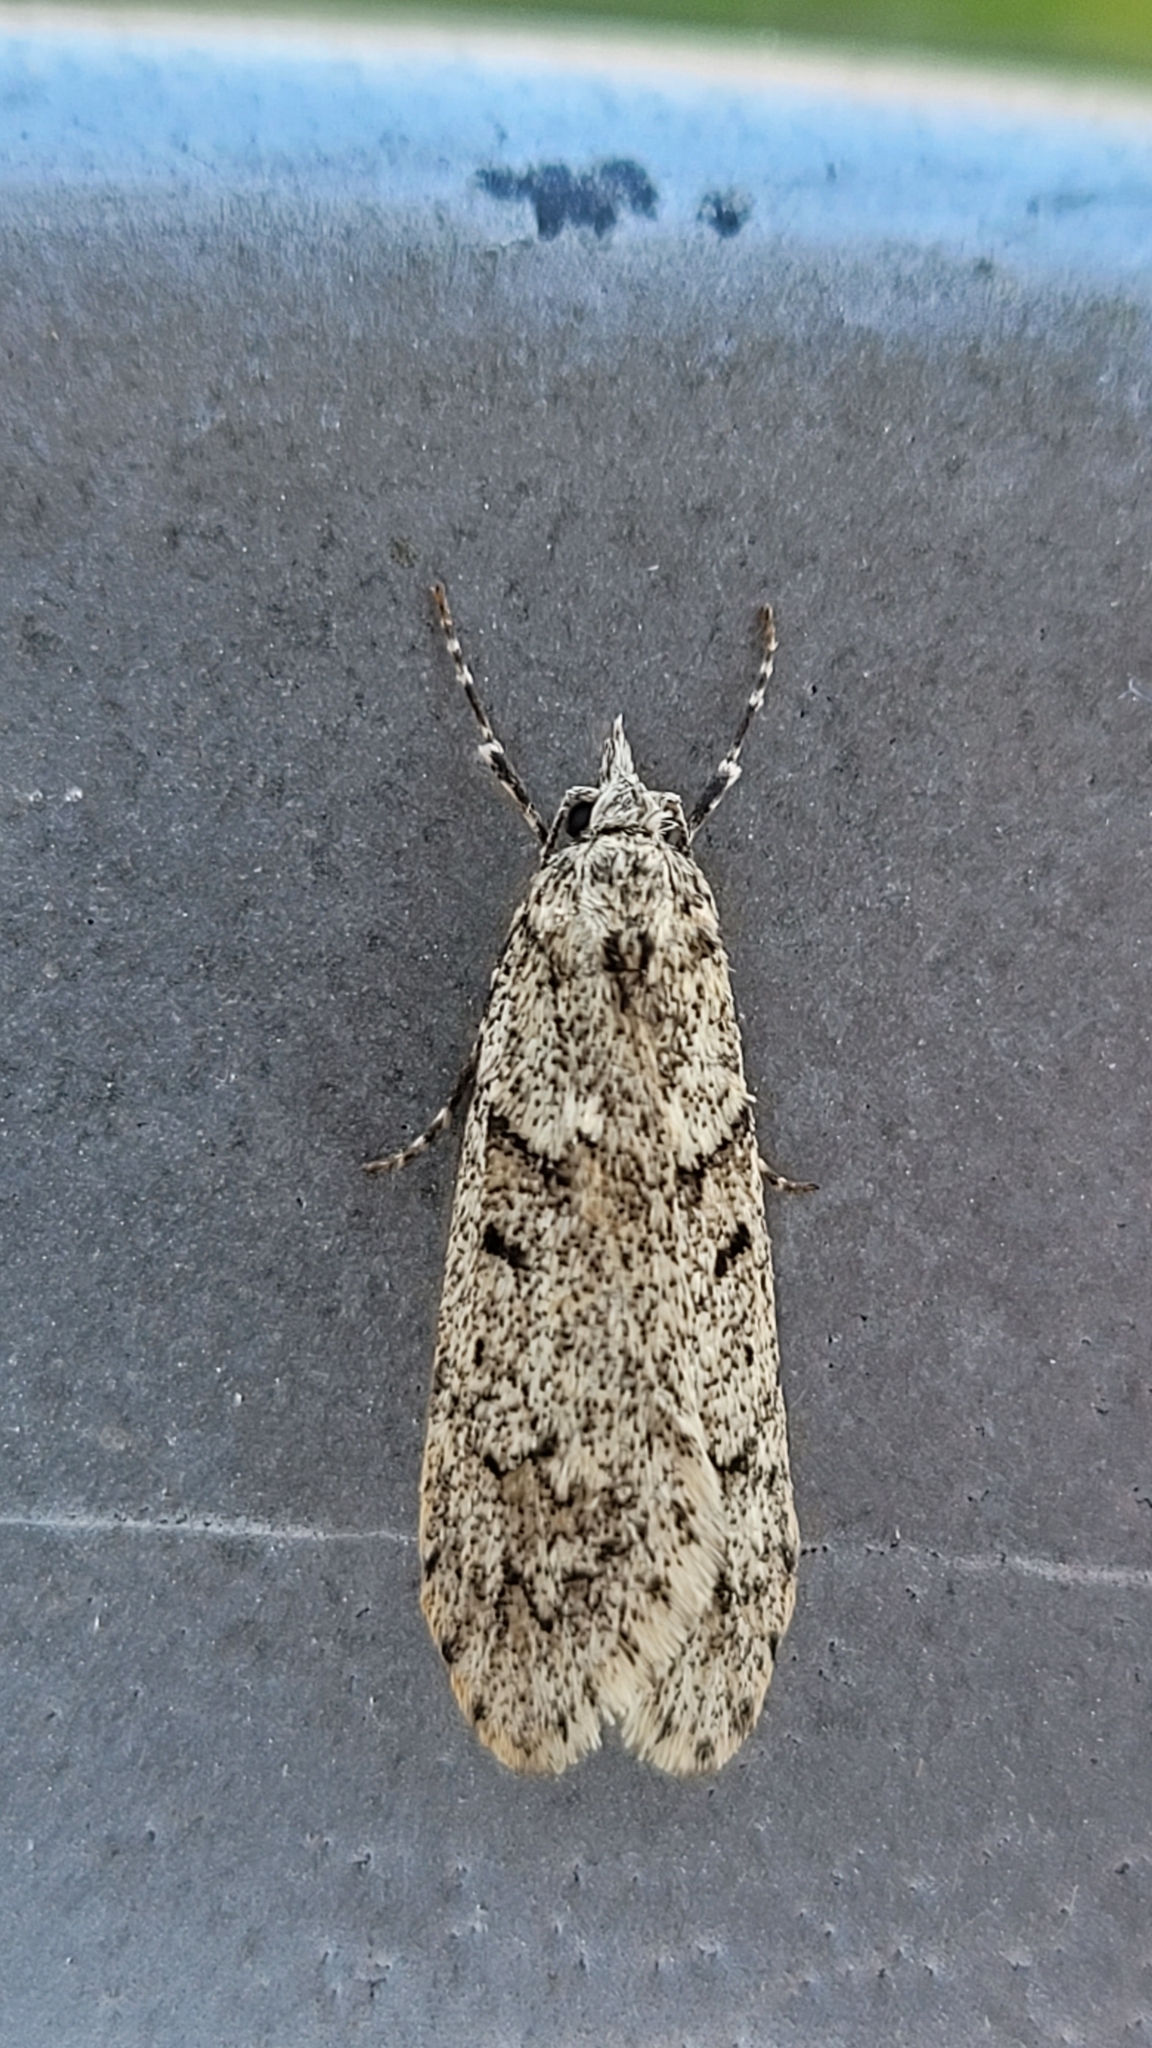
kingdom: Animalia
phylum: Arthropoda
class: Insecta
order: Lepidoptera
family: Lypusidae
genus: Diurnea
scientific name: Diurnea fagella
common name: March tubic
